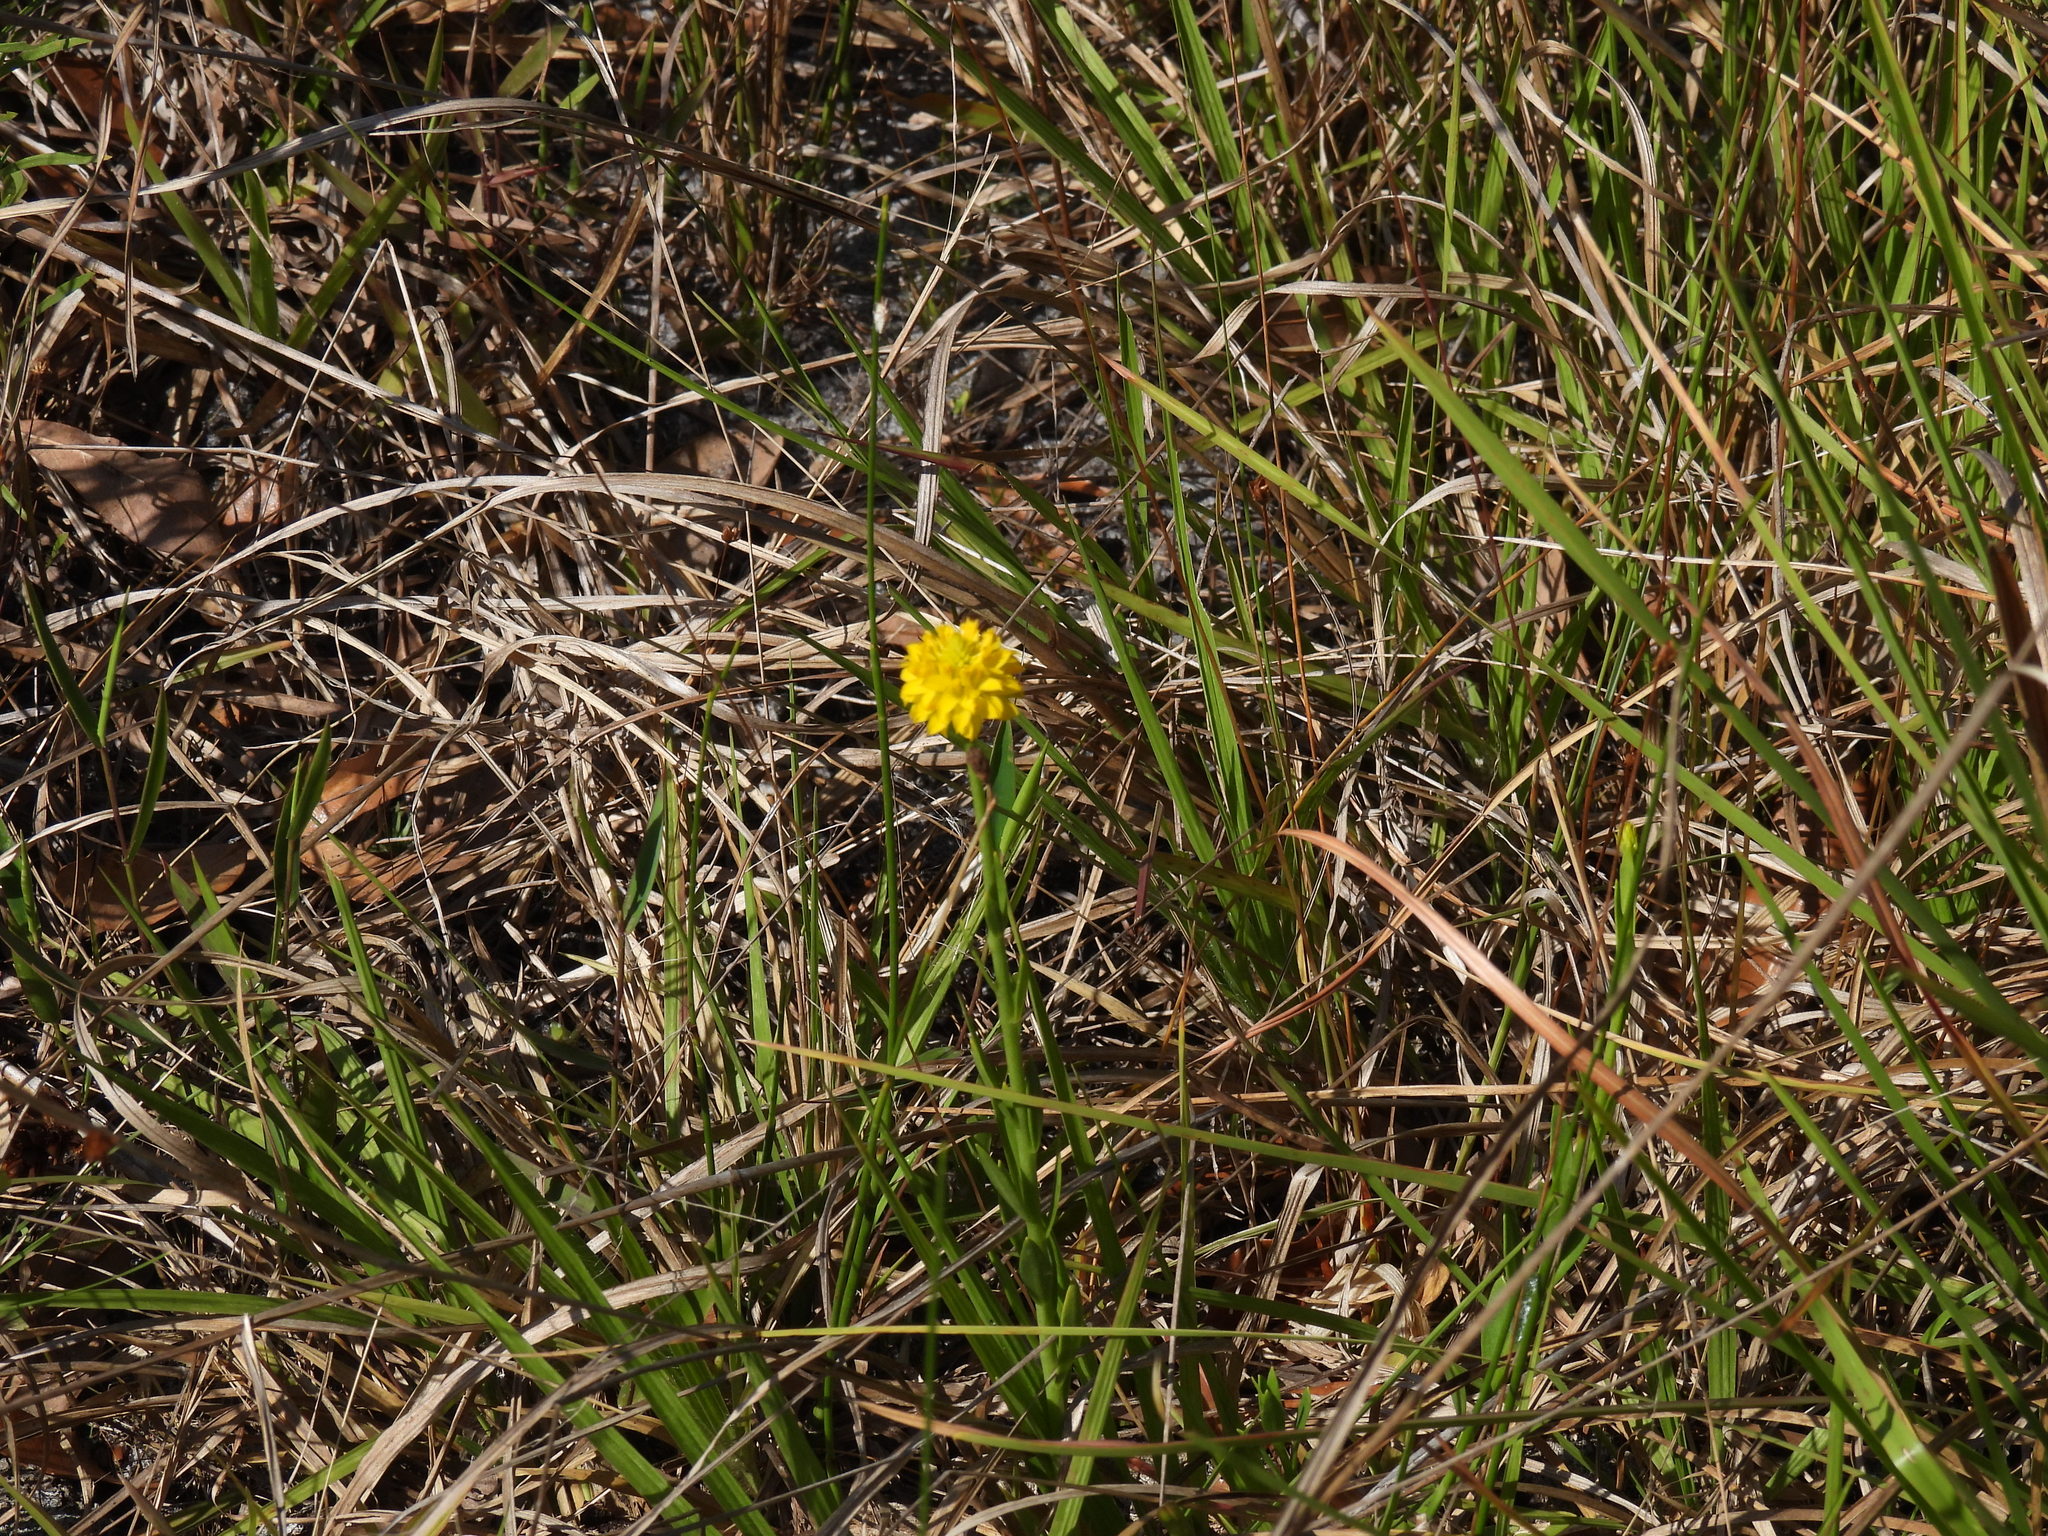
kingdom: Plantae
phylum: Tracheophyta
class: Magnoliopsida
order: Fabales
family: Polygalaceae
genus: Polygala
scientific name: Polygala rugelii
